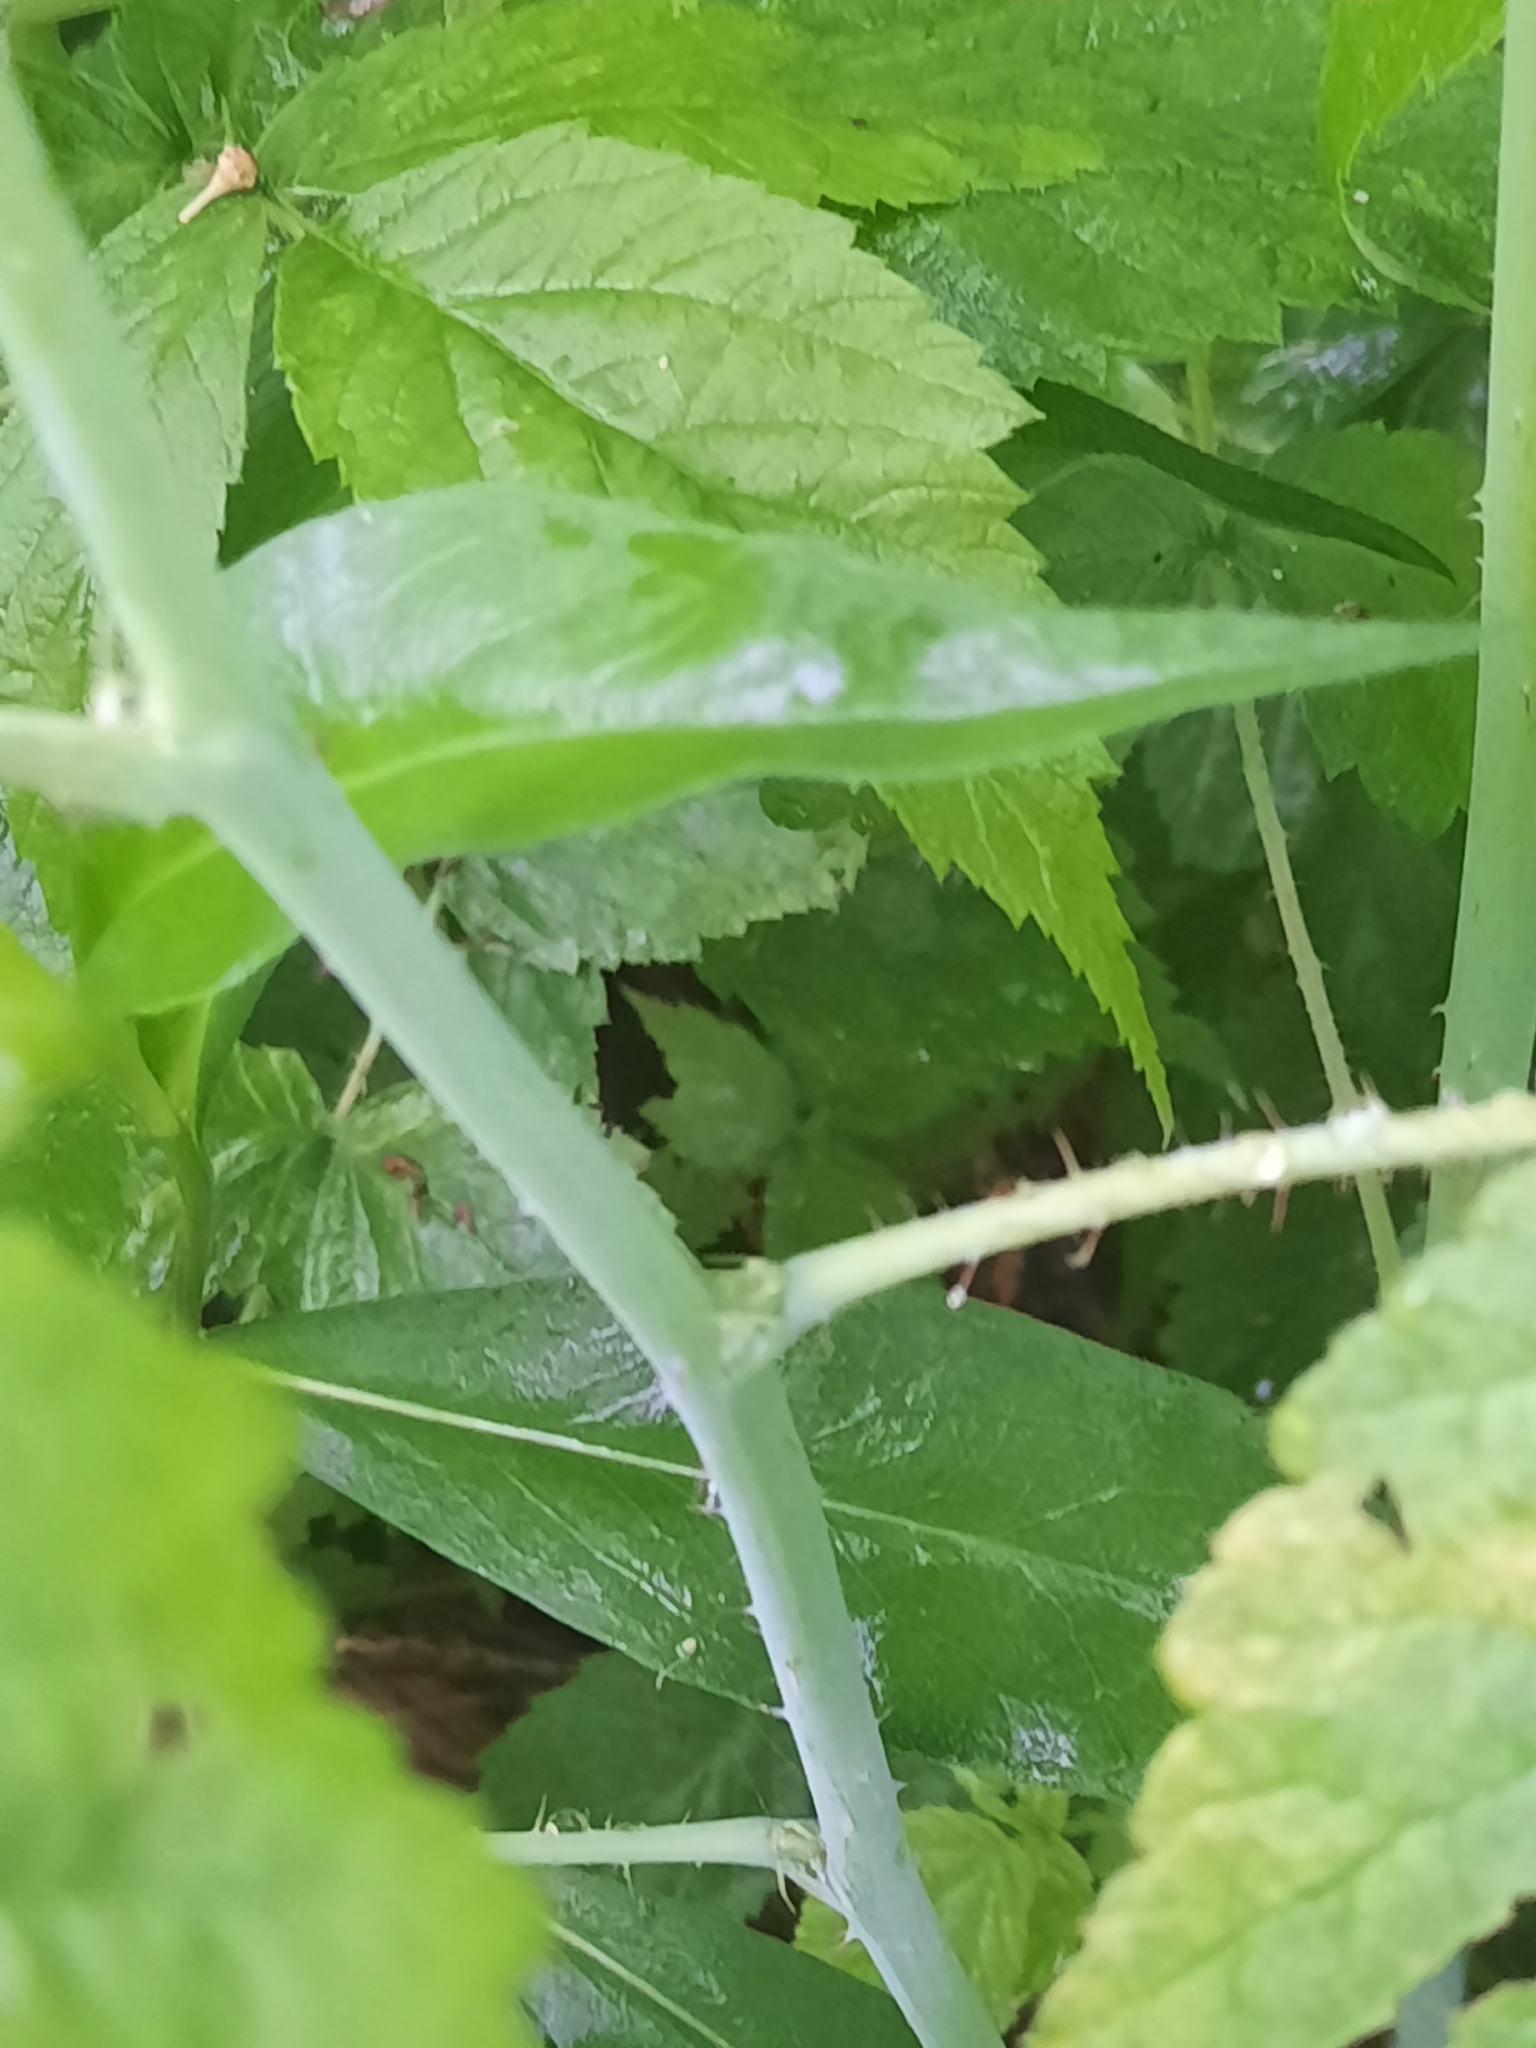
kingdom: Plantae
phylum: Tracheophyta
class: Magnoliopsida
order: Rosales
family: Rosaceae
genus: Rubus
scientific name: Rubus occidentalis
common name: Black raspberry
